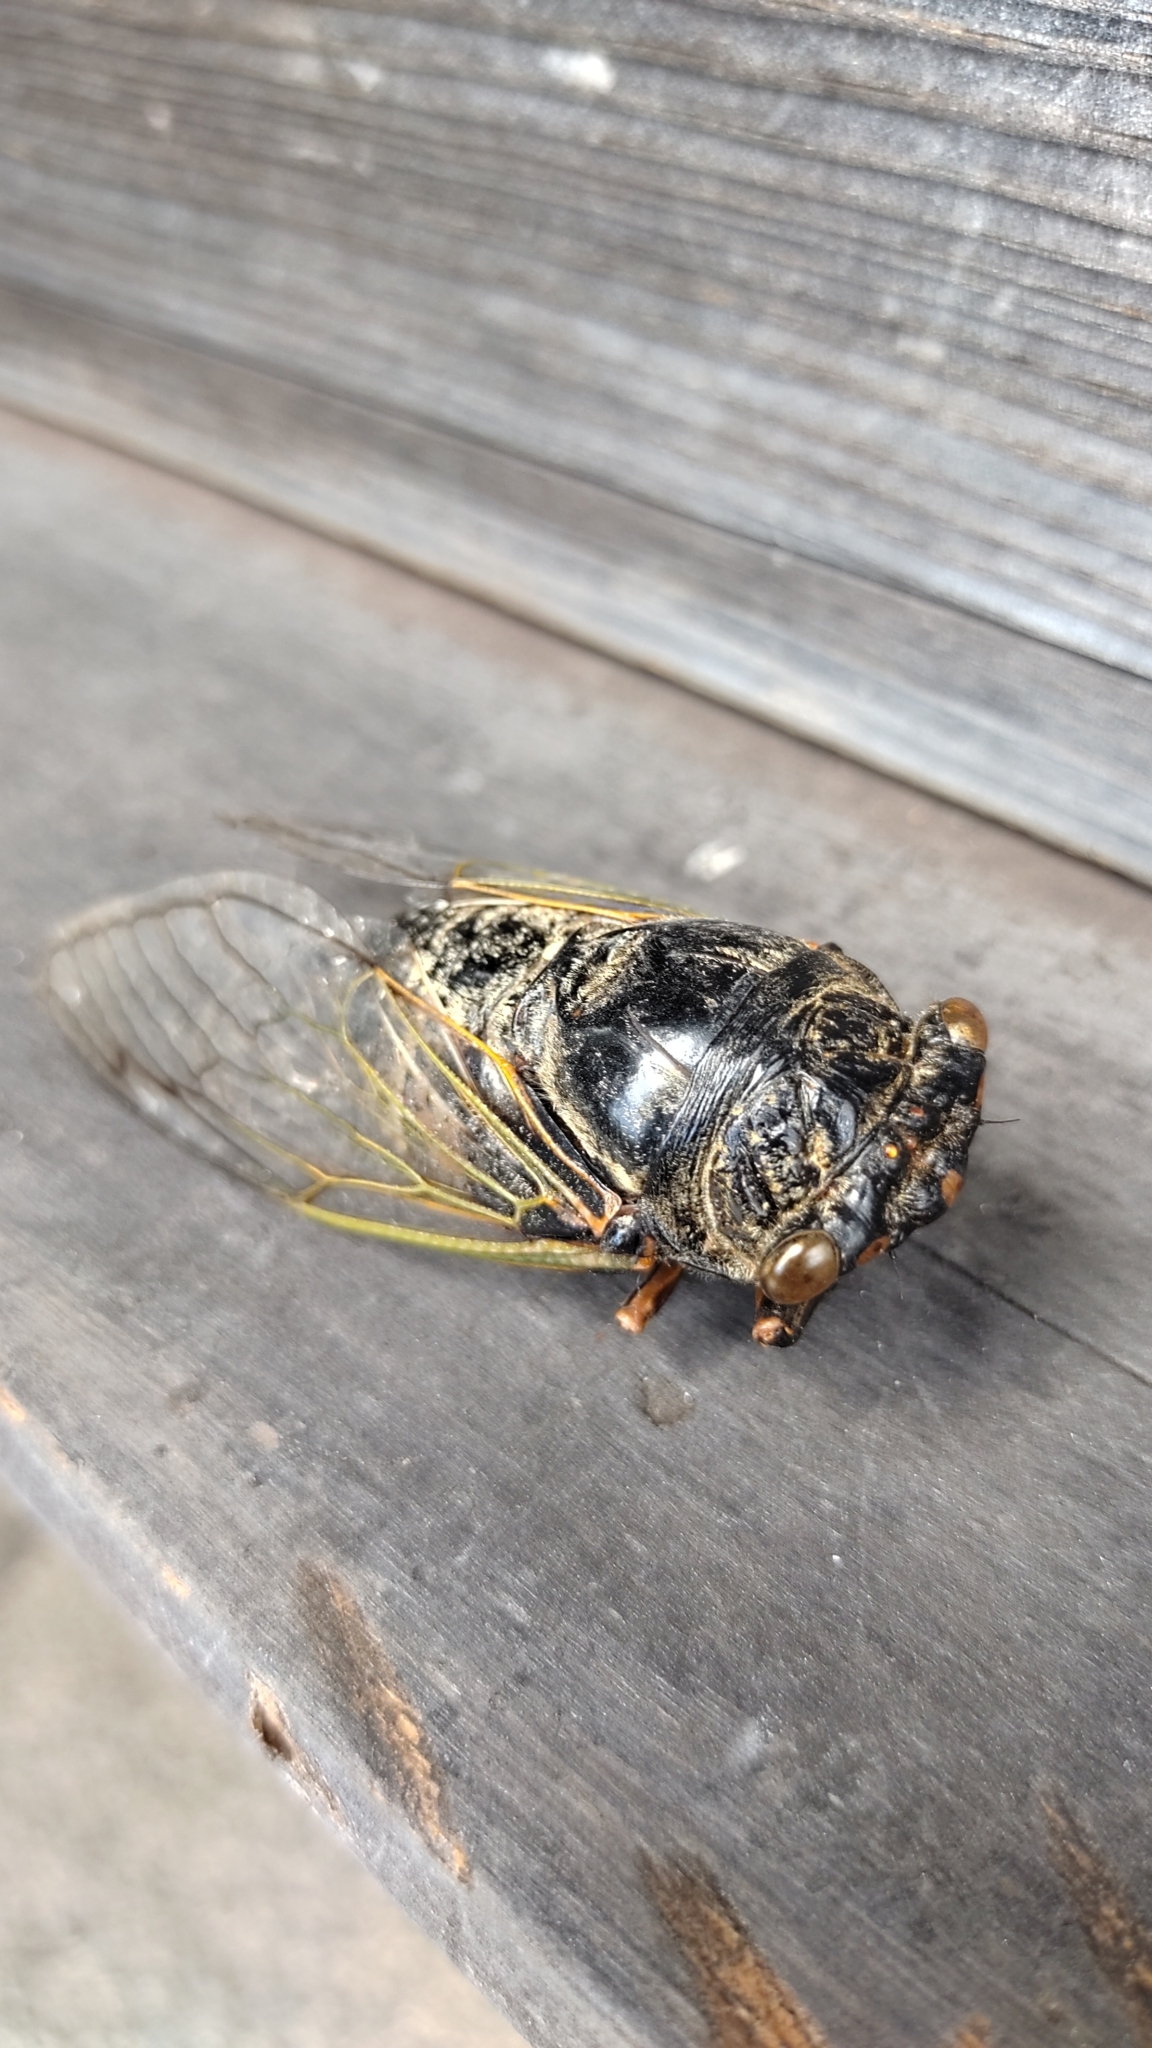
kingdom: Animalia
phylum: Arthropoda
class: Insecta
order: Hemiptera
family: Cicadidae
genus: Cryptotympana
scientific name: Cryptotympana facialis
